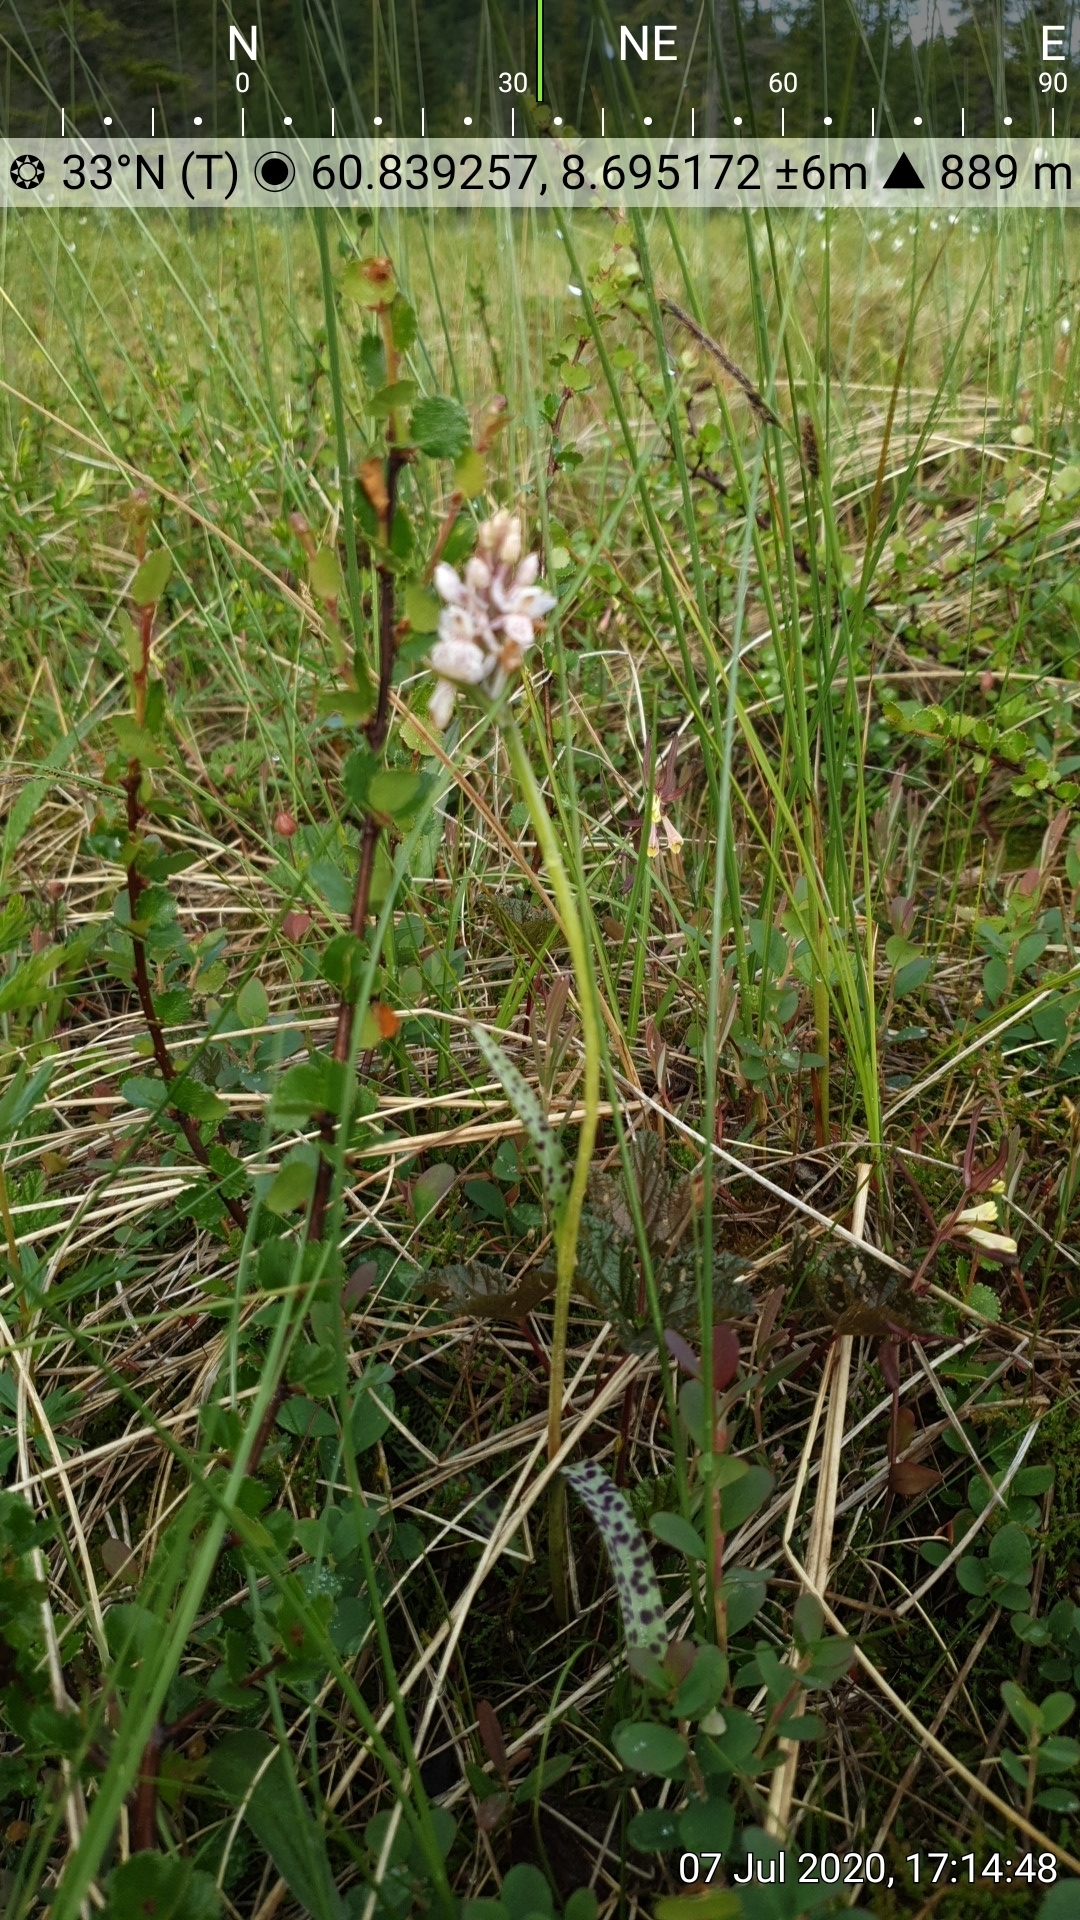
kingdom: Plantae
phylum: Tracheophyta
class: Liliopsida
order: Asparagales
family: Orchidaceae
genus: Dactylorhiza
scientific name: Dactylorhiza maculata
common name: Heath spotted-orchid
